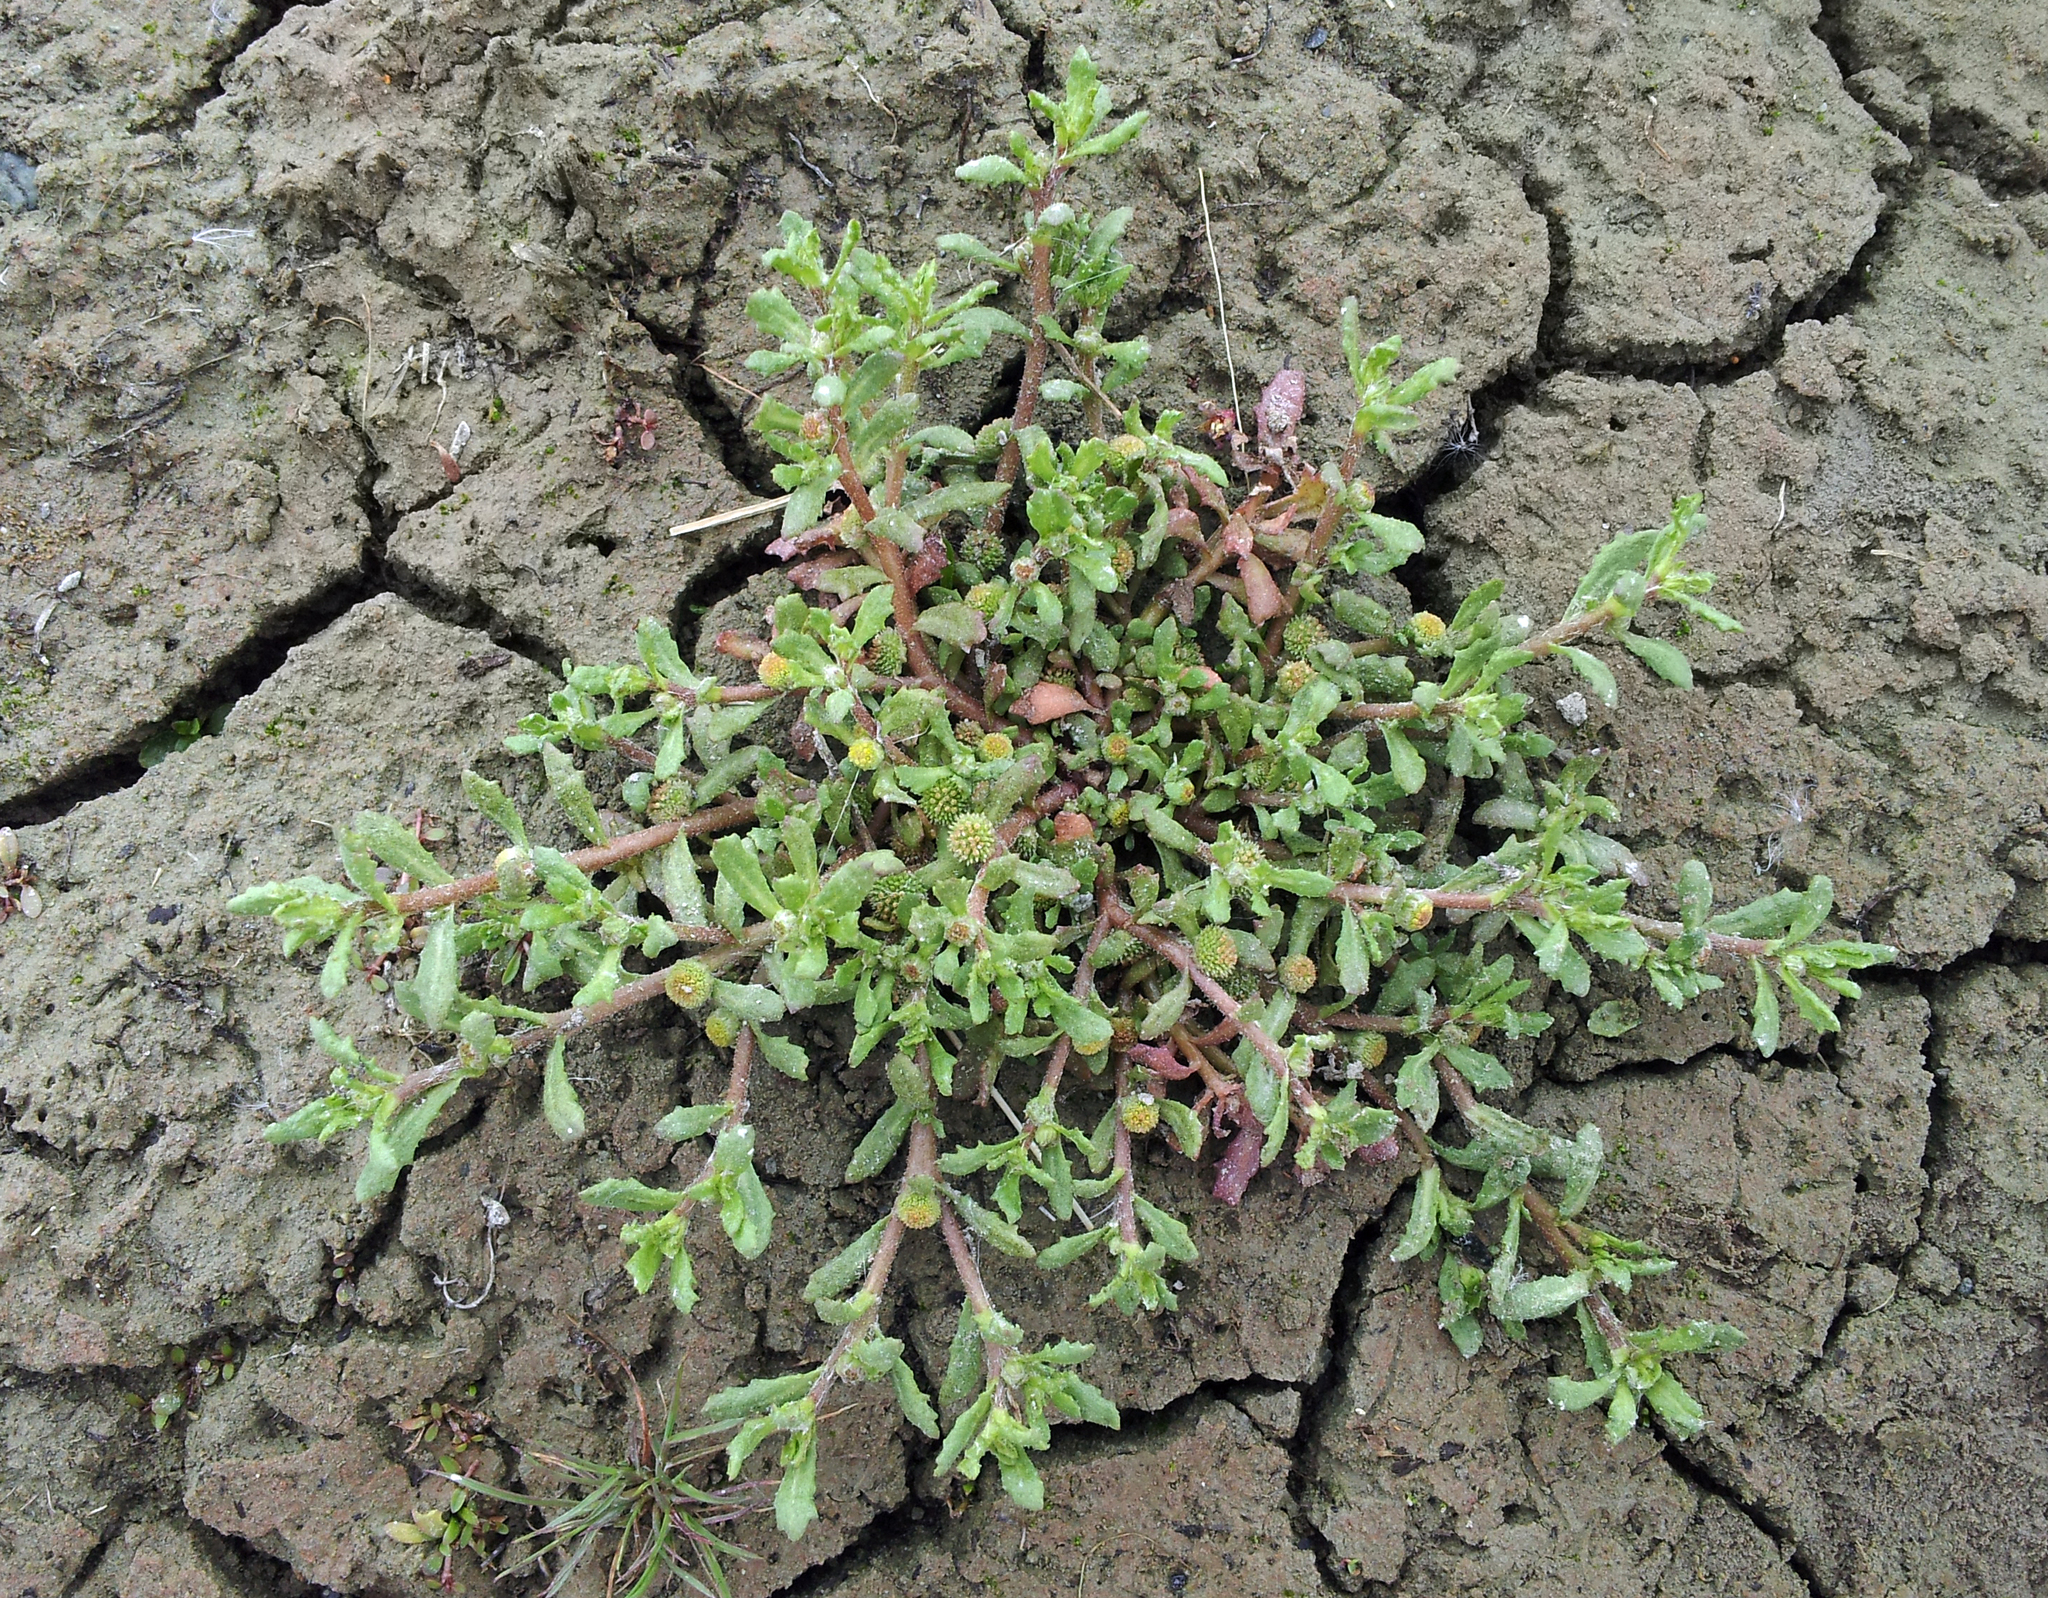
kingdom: Plantae
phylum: Tracheophyta
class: Magnoliopsida
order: Asterales
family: Asteraceae
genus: Centipeda
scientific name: Centipeda aotearoana
